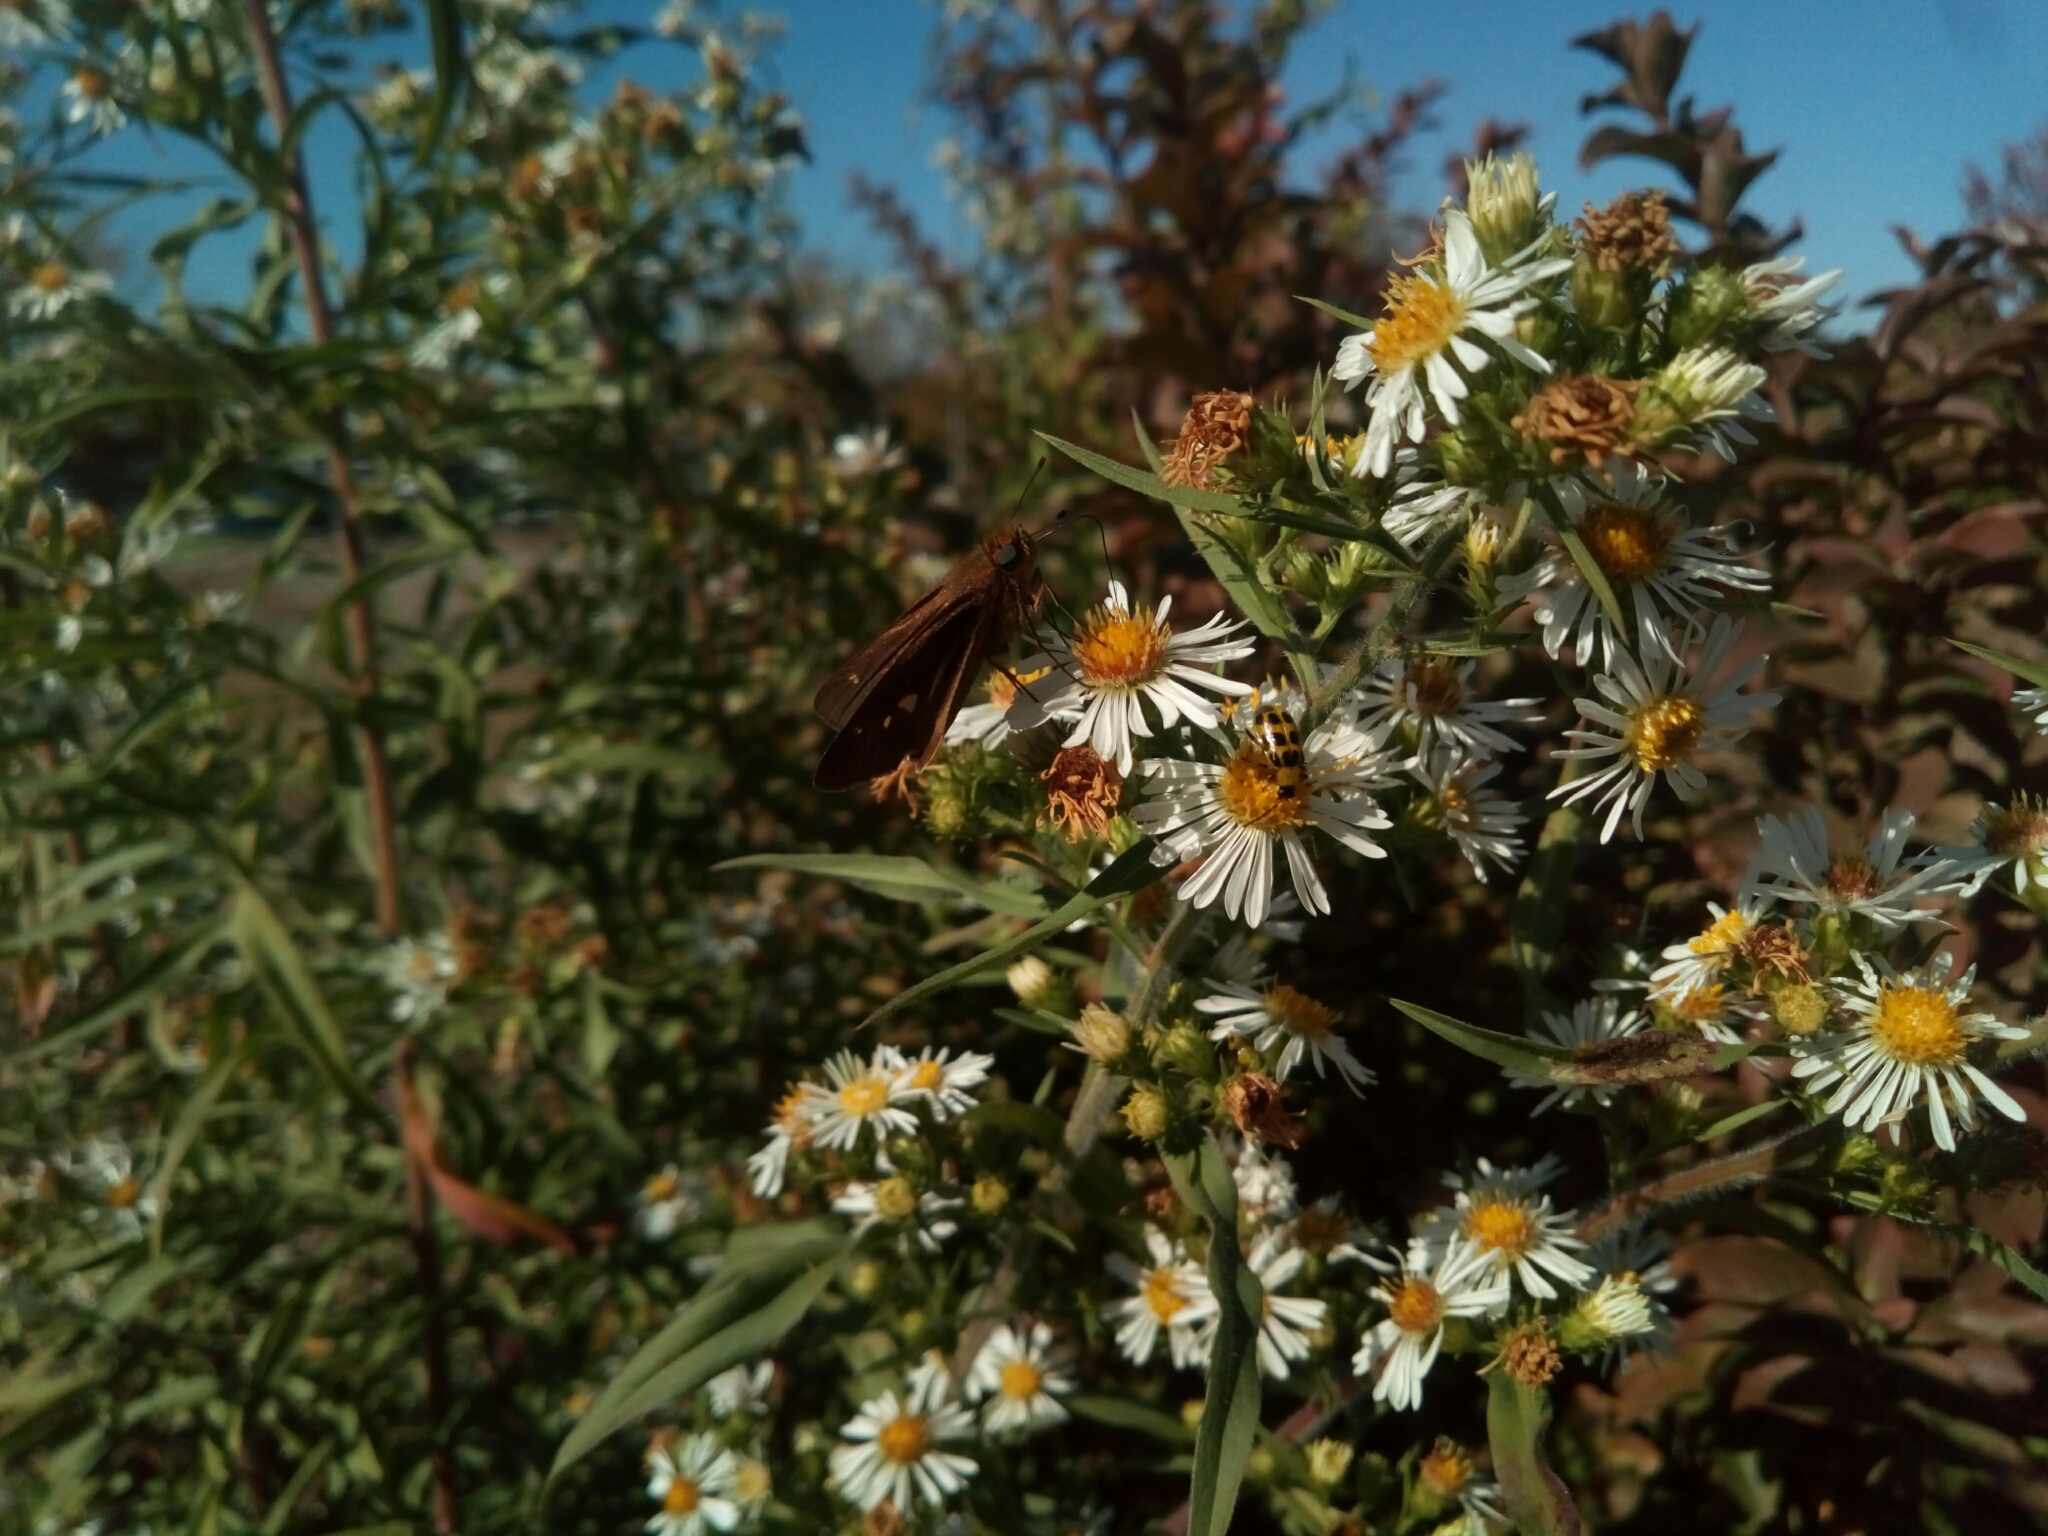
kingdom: Animalia
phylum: Arthropoda
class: Insecta
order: Lepidoptera
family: Hesperiidae
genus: Panoquina
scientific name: Panoquina ocola
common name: Ocola skipper
